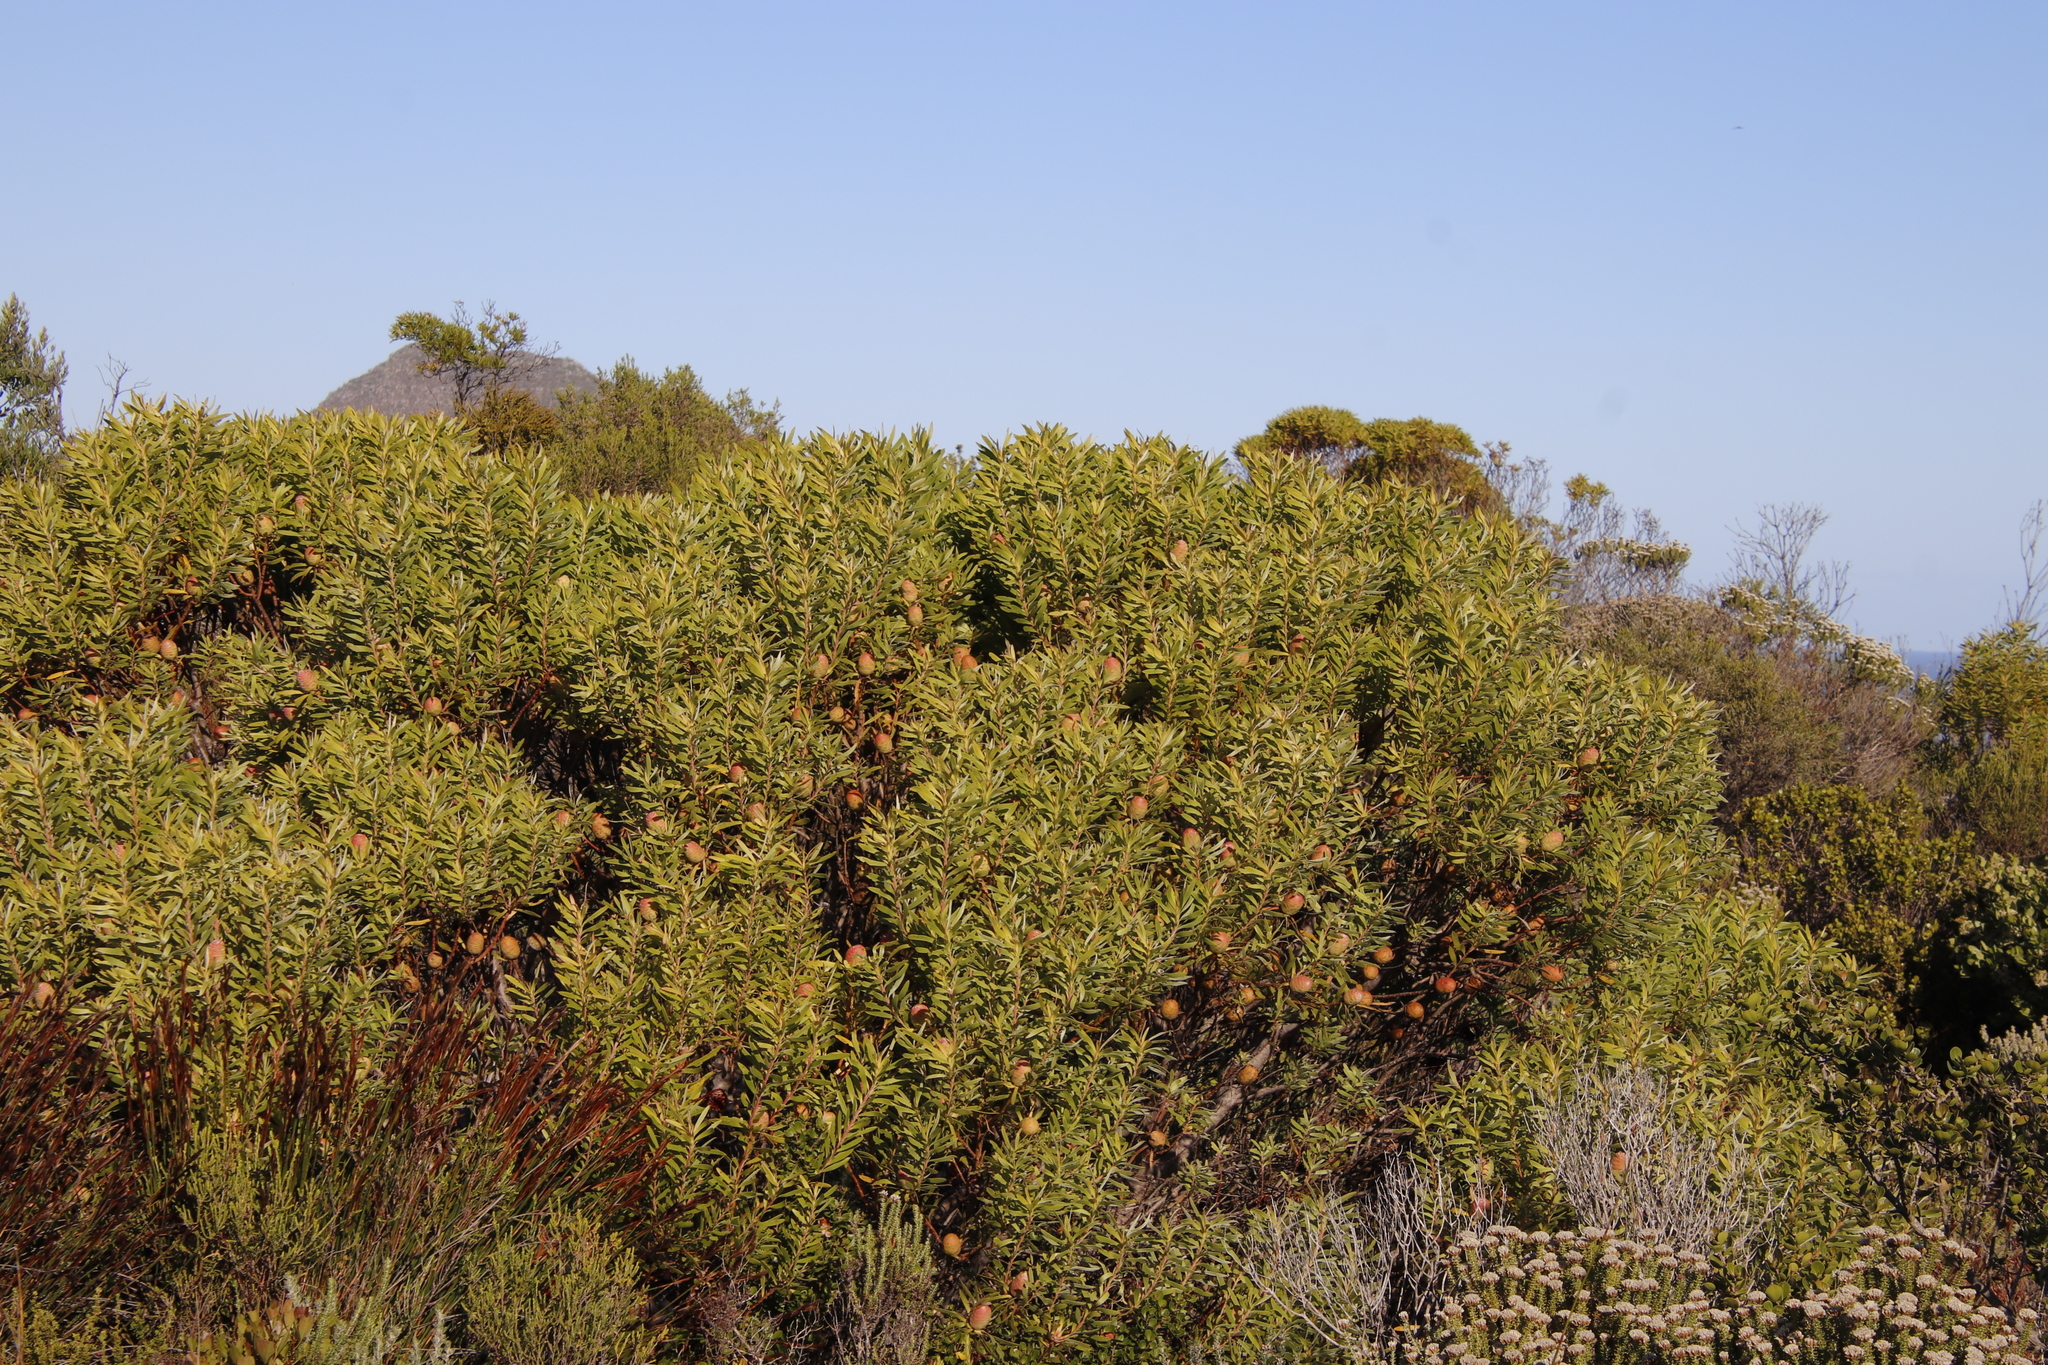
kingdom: Plantae
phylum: Tracheophyta
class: Magnoliopsida
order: Proteales
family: Proteaceae
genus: Leucadendron
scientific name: Leucadendron coniferum
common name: Dune conebush
